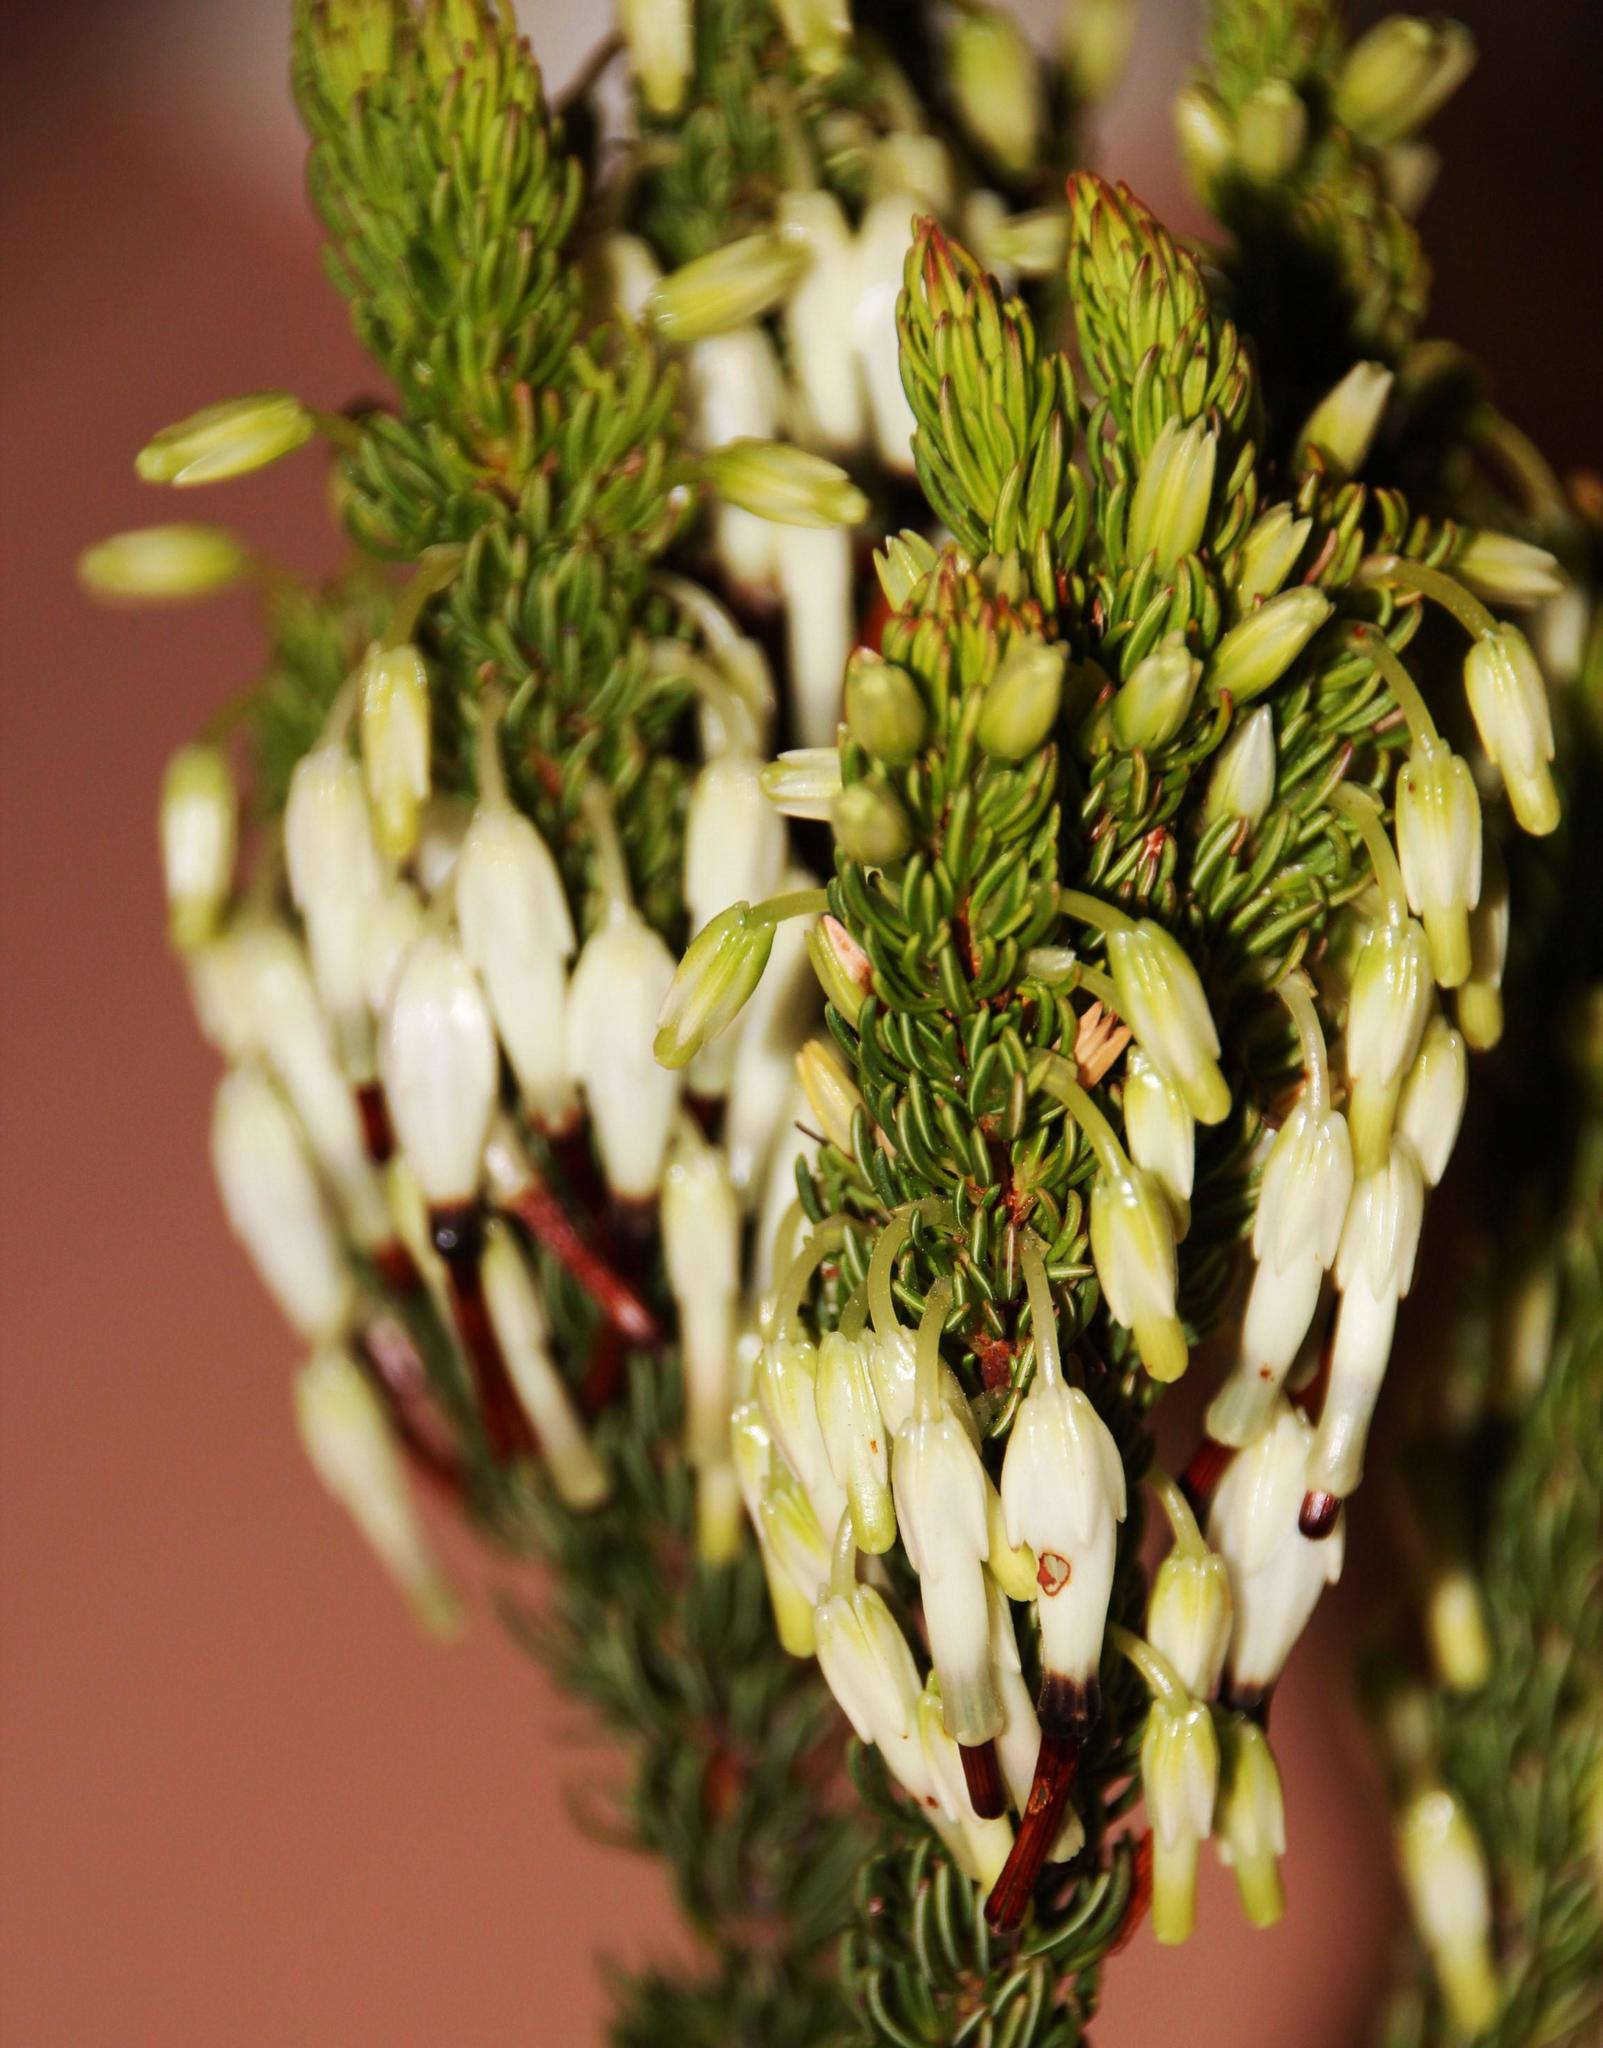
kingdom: Plantae
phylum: Tracheophyta
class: Magnoliopsida
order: Ericales
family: Ericaceae
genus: Erica
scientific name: Erica plukenetii
